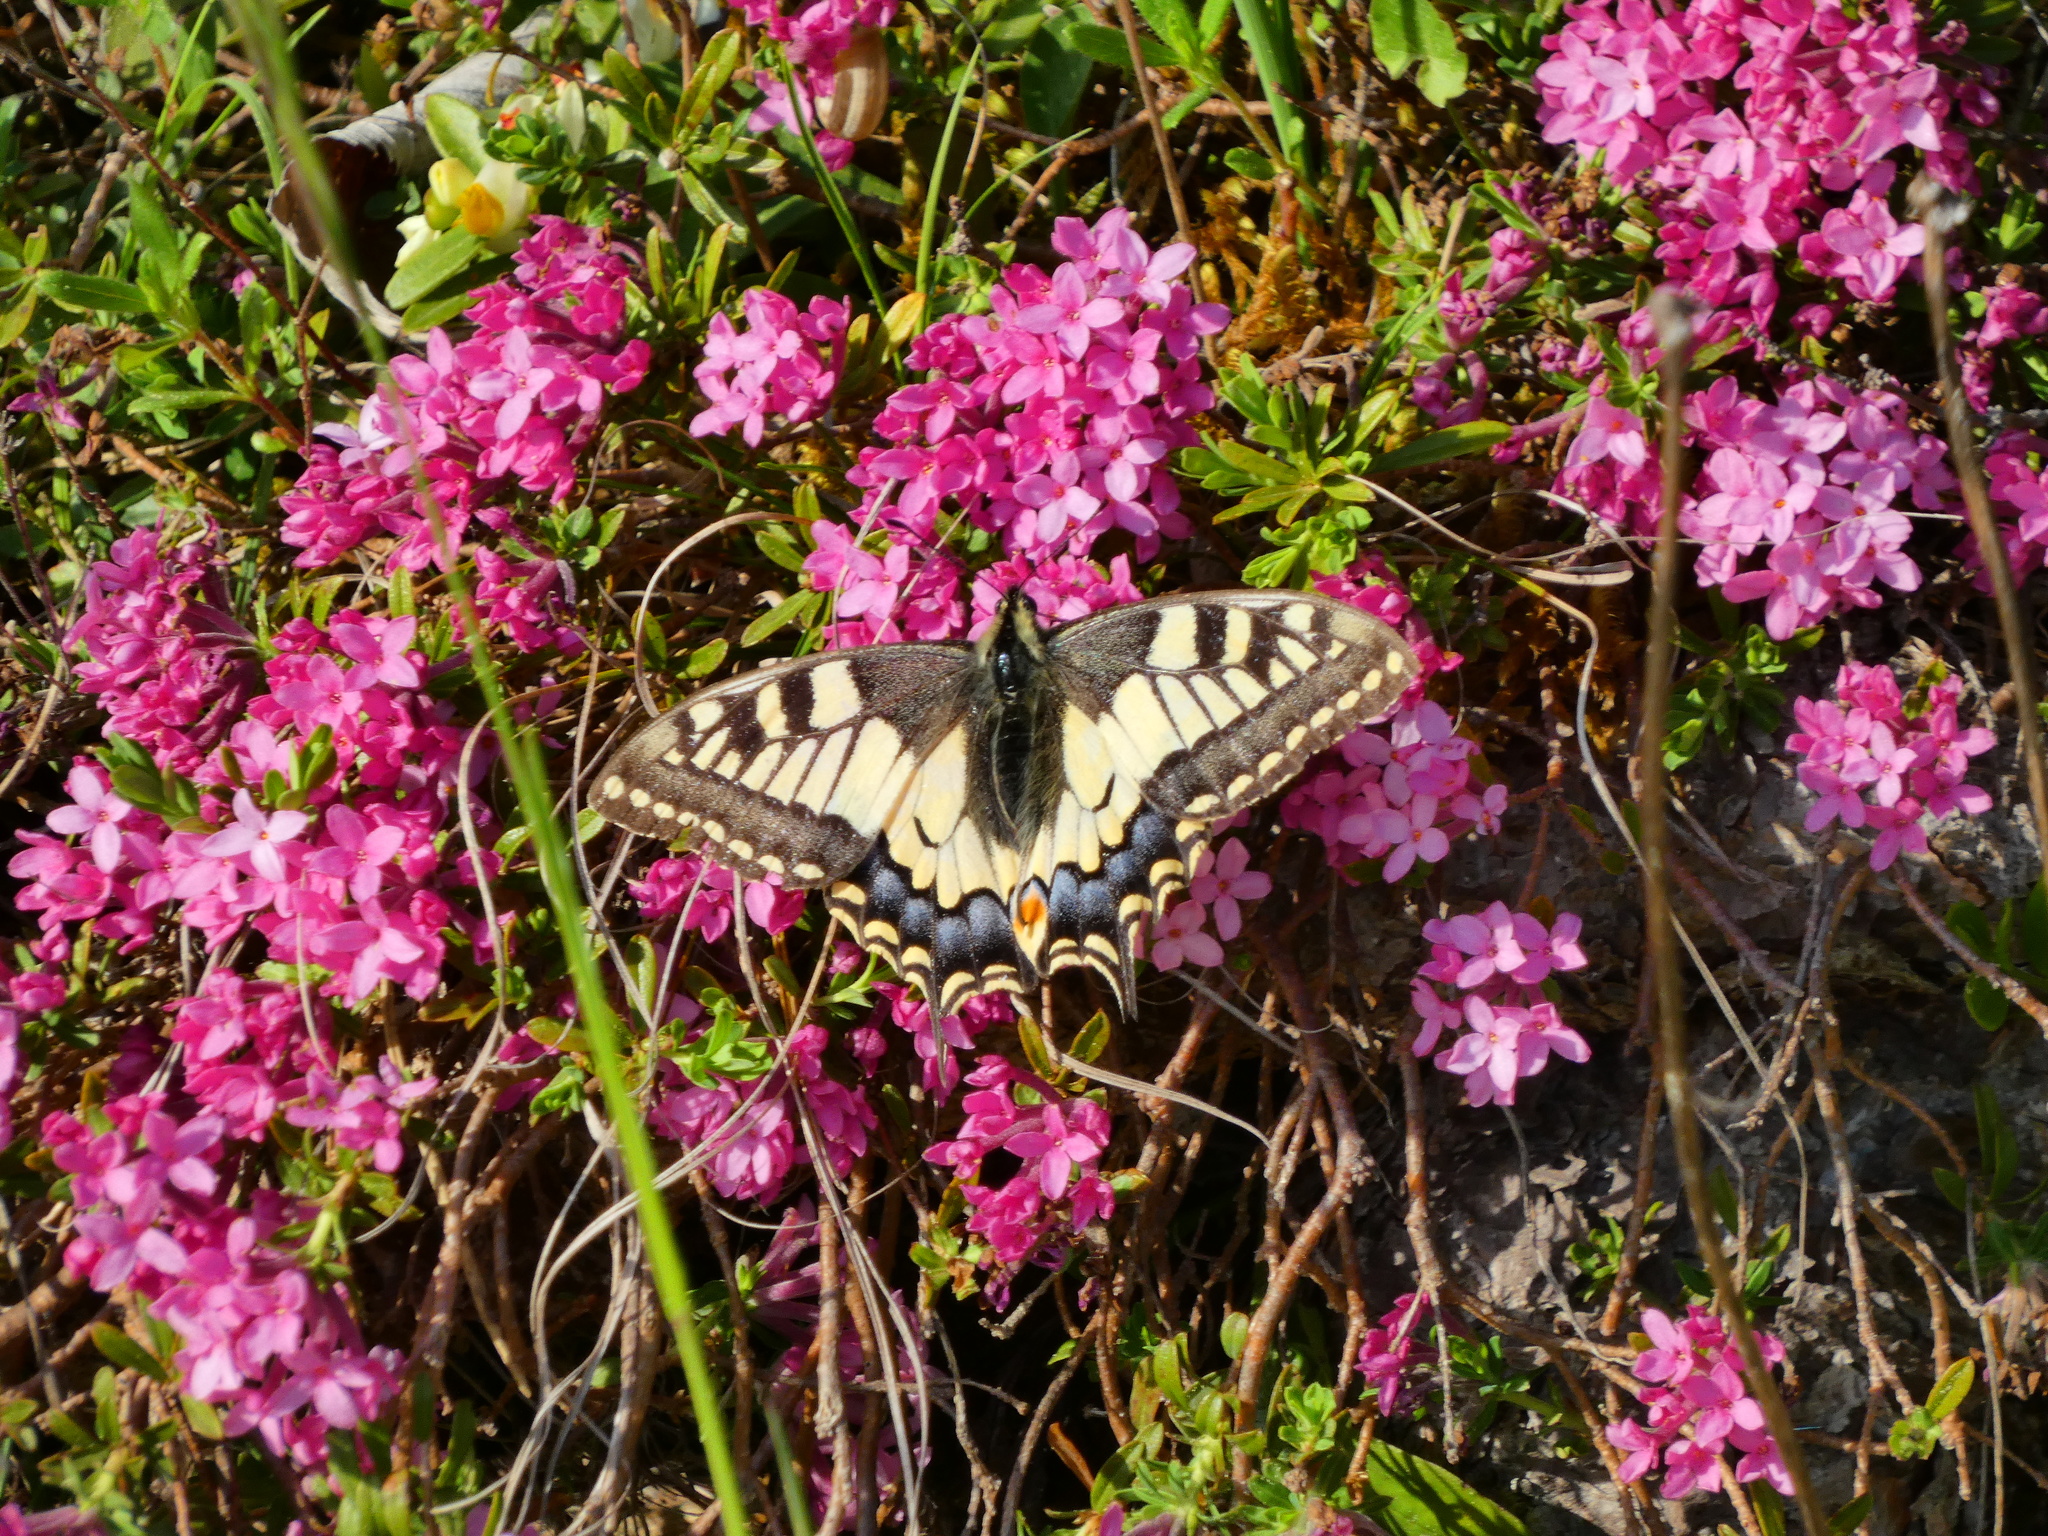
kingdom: Animalia
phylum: Arthropoda
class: Insecta
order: Lepidoptera
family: Papilionidae
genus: Papilio
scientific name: Papilio machaon
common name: Swallowtail
